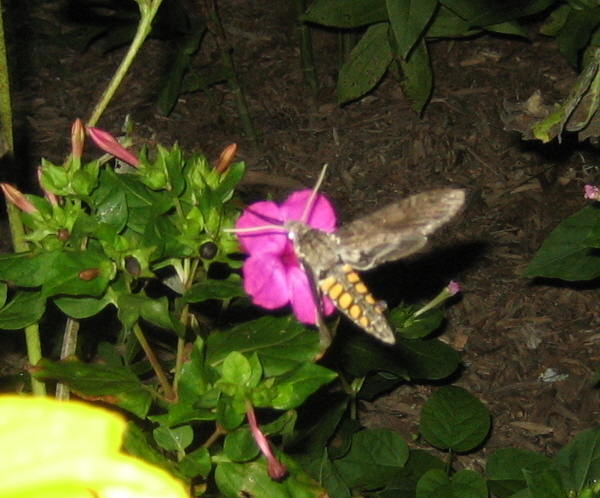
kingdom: Animalia
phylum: Arthropoda
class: Insecta
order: Lepidoptera
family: Sphingidae
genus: Manduca
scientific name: Manduca sexta
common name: Carolina sphinx
